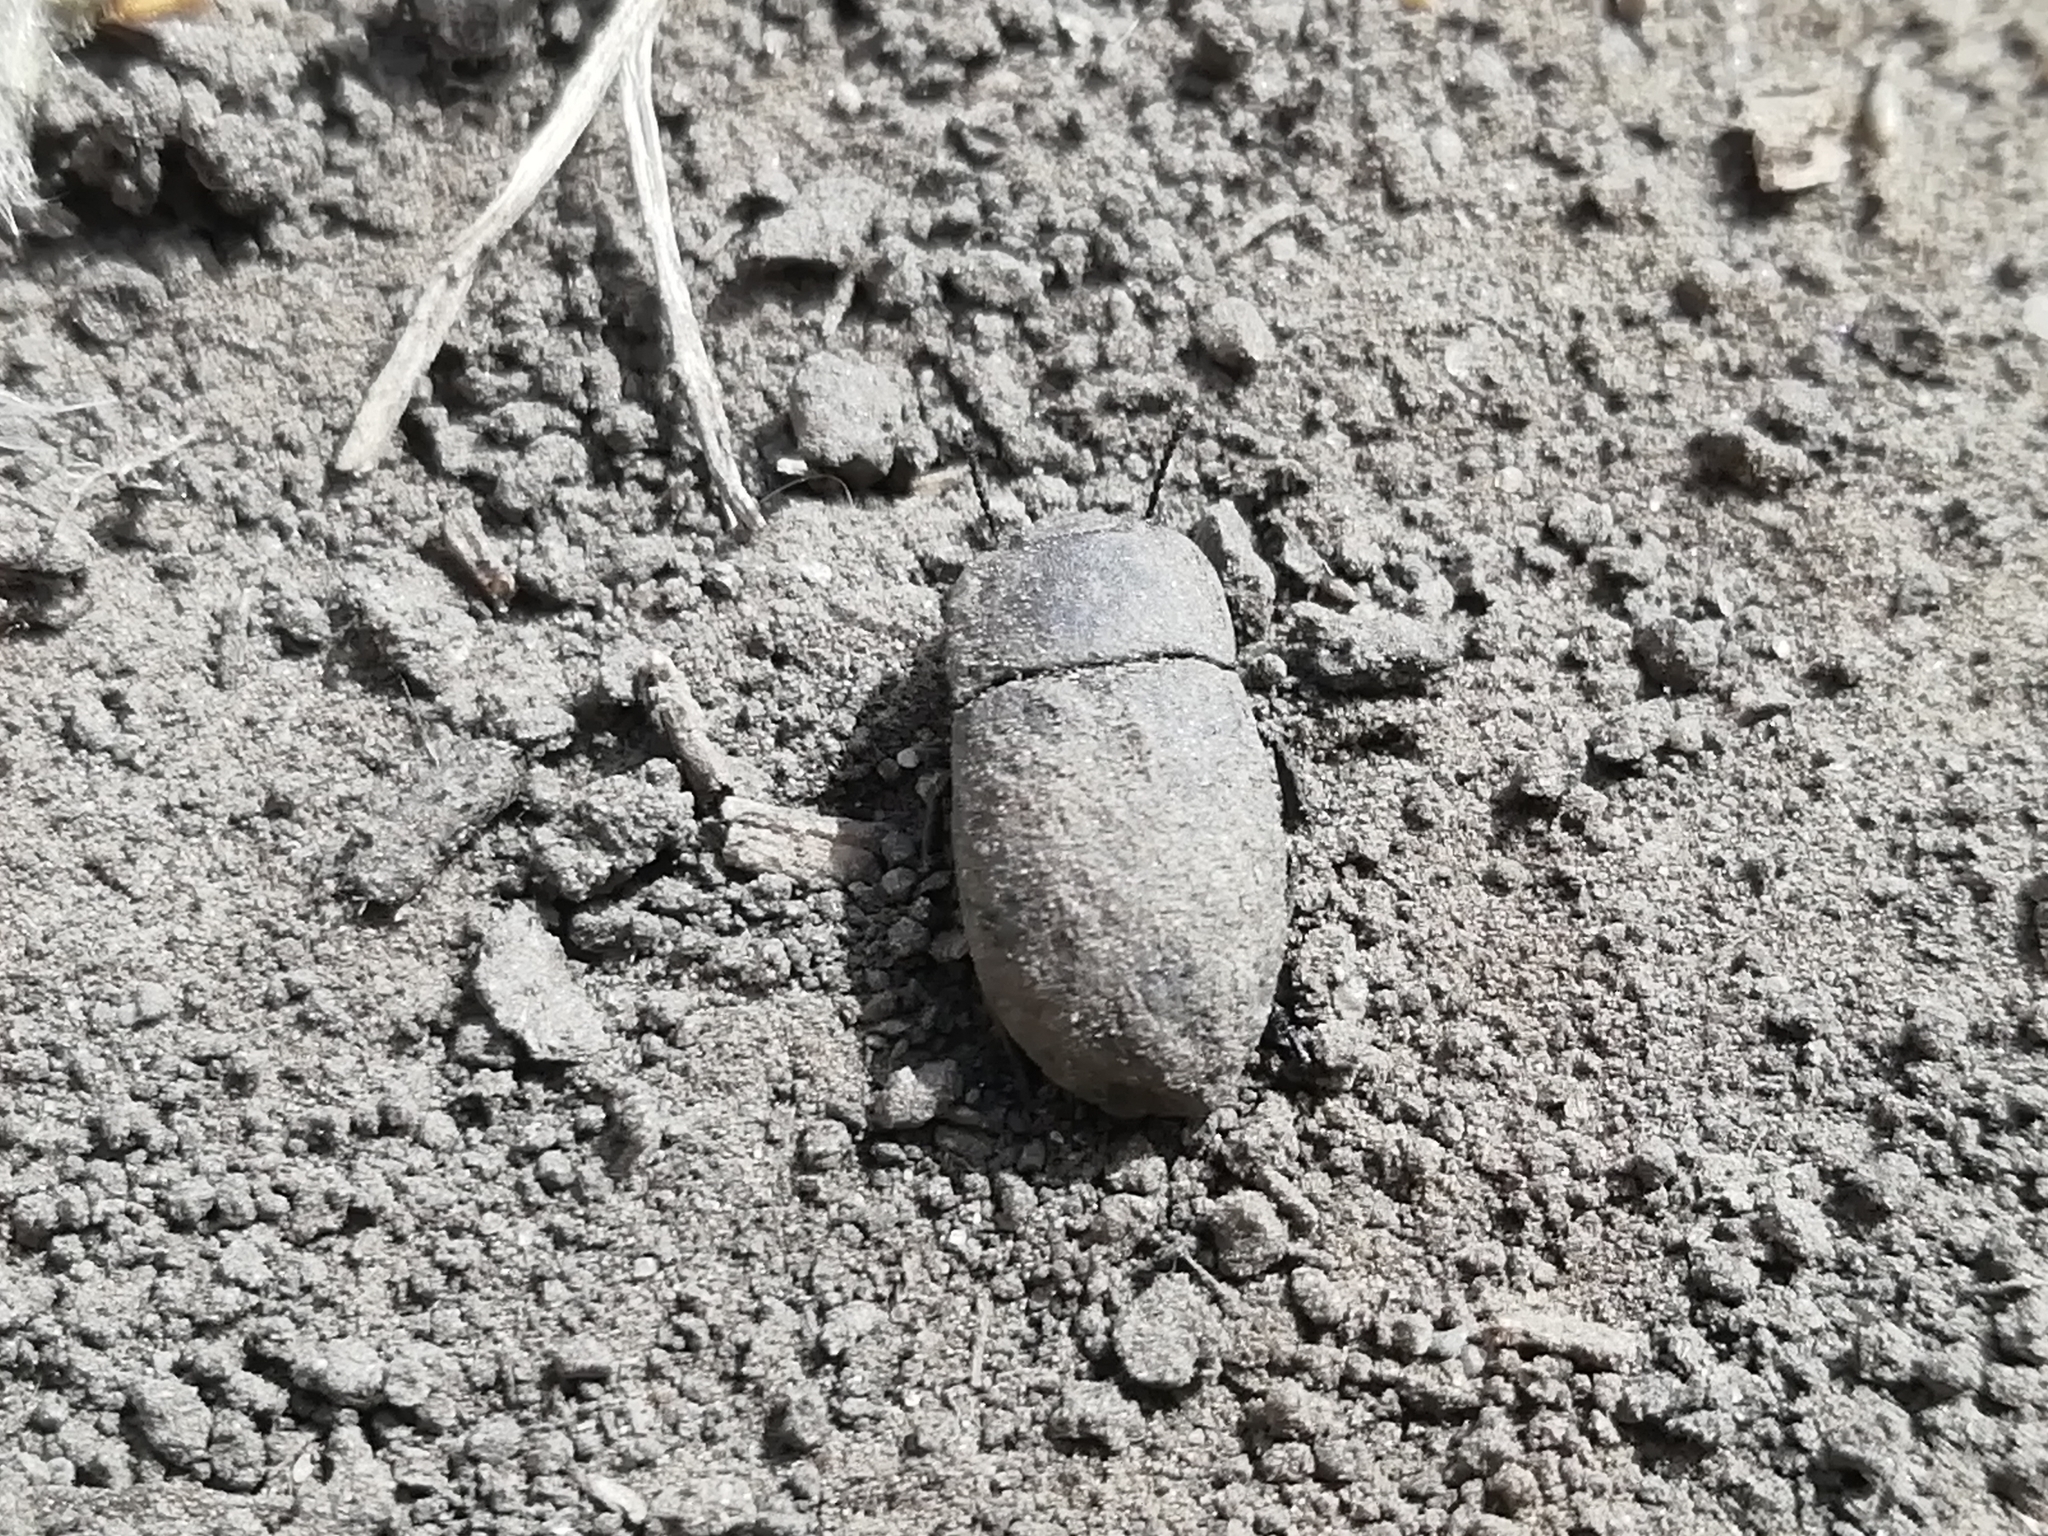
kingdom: Animalia
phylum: Arthropoda
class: Insecta
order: Coleoptera
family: Tenebrionidae
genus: Opatrum
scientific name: Opatrum sabulosum
